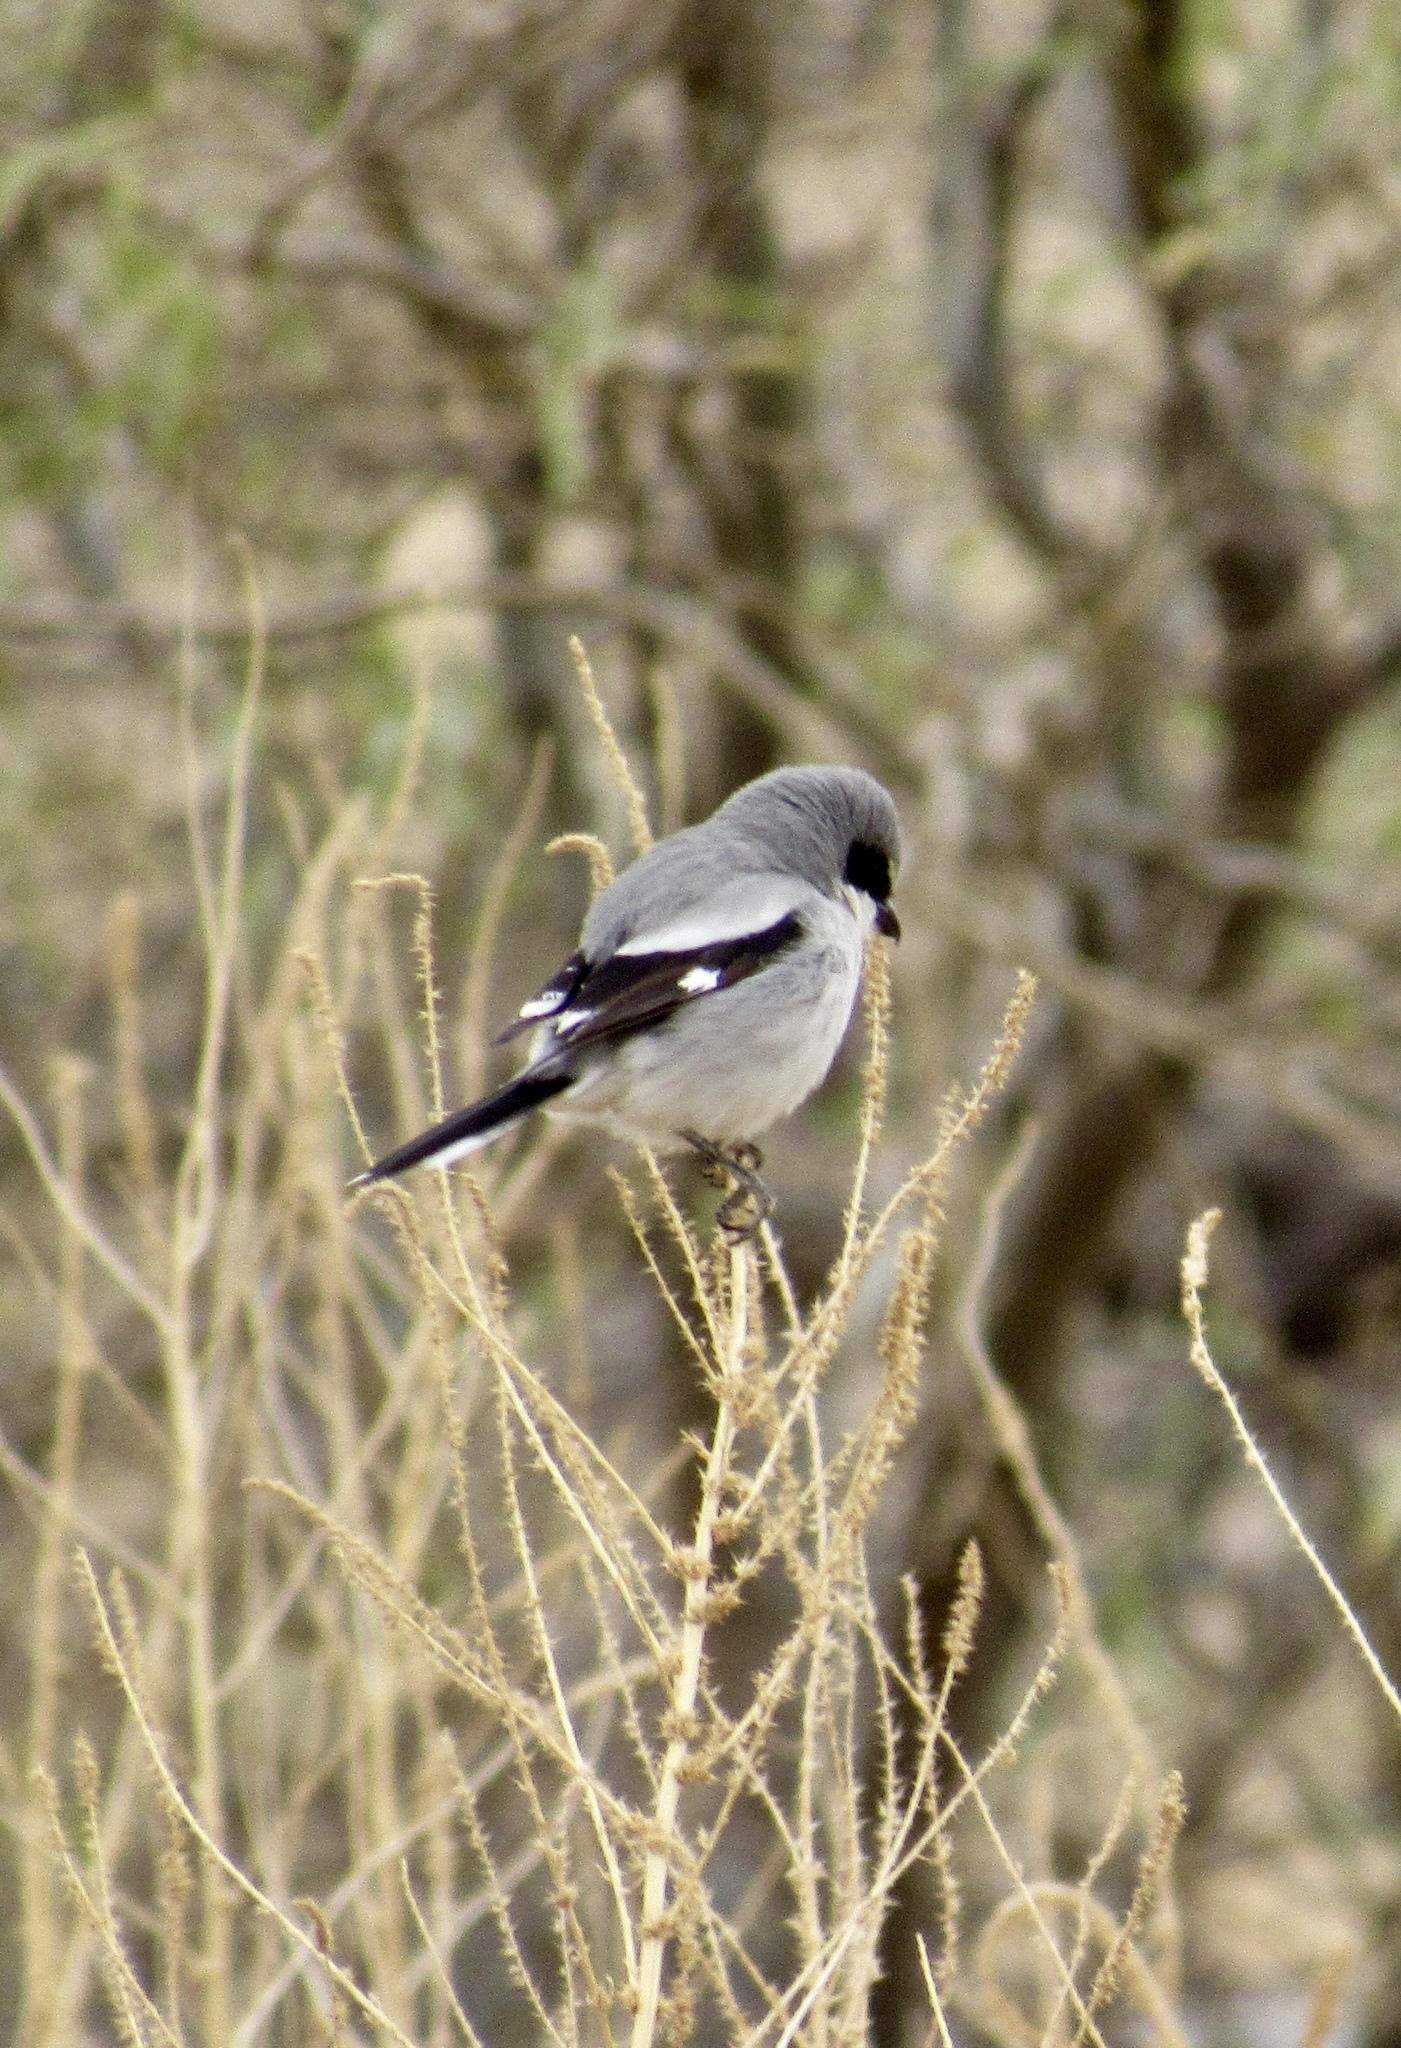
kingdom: Animalia
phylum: Chordata
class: Aves
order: Passeriformes
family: Laniidae
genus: Lanius
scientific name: Lanius ludovicianus
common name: Loggerhead shrike
